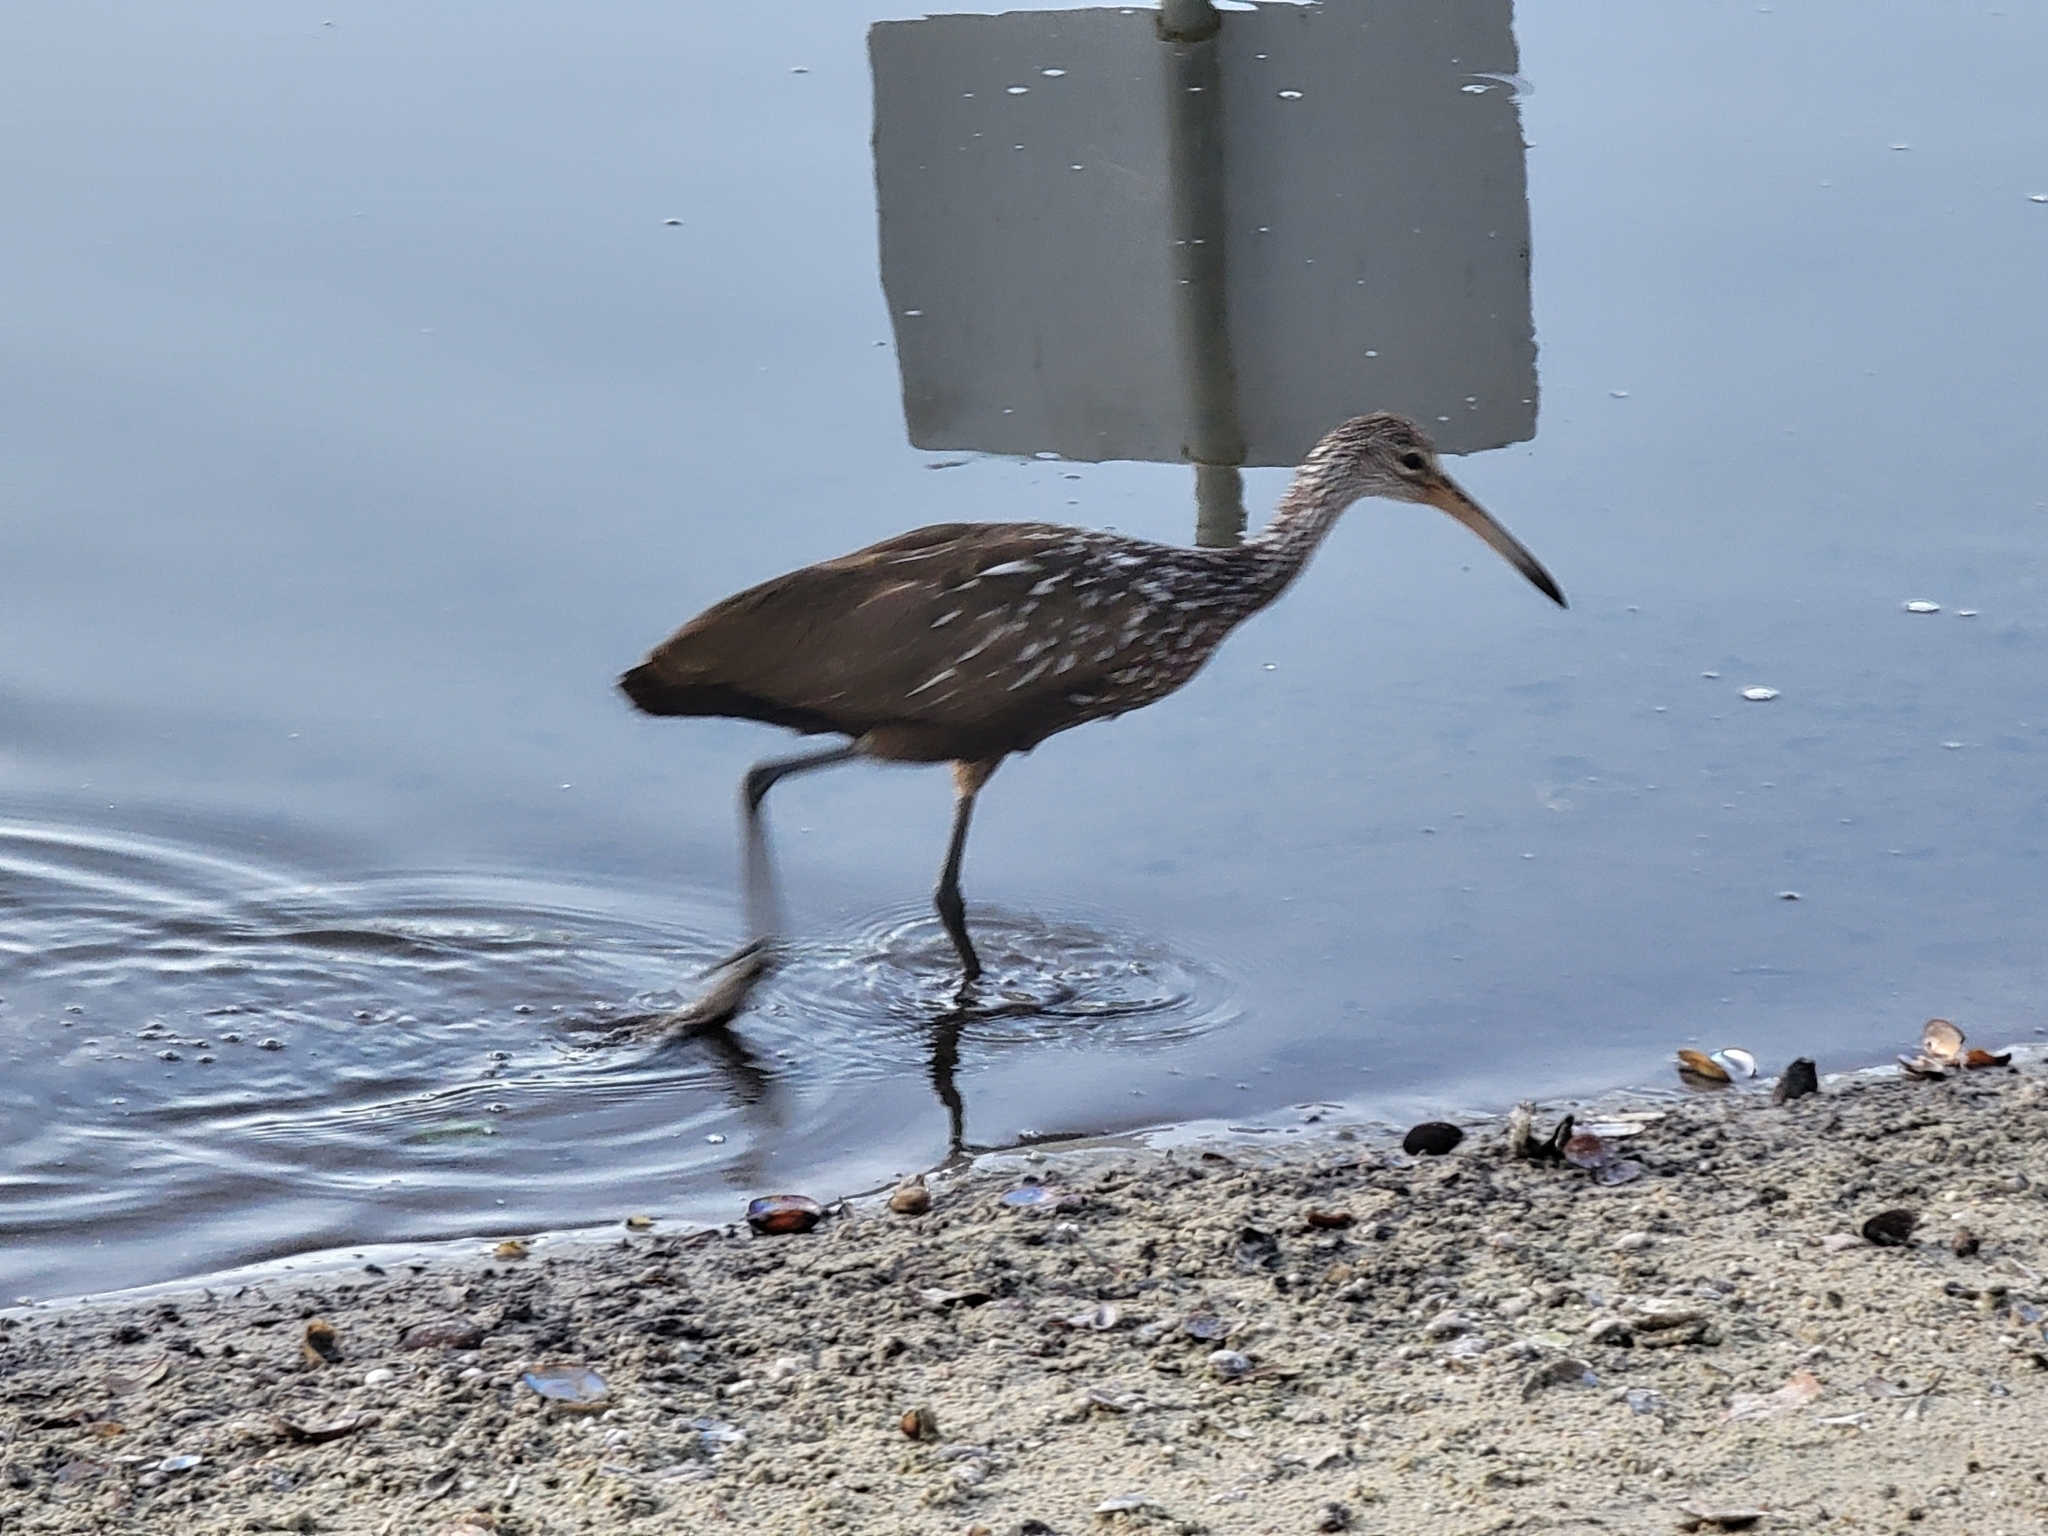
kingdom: Animalia
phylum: Chordata
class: Aves
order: Gruiformes
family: Aramidae
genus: Aramus
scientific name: Aramus guarauna
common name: Limpkin
